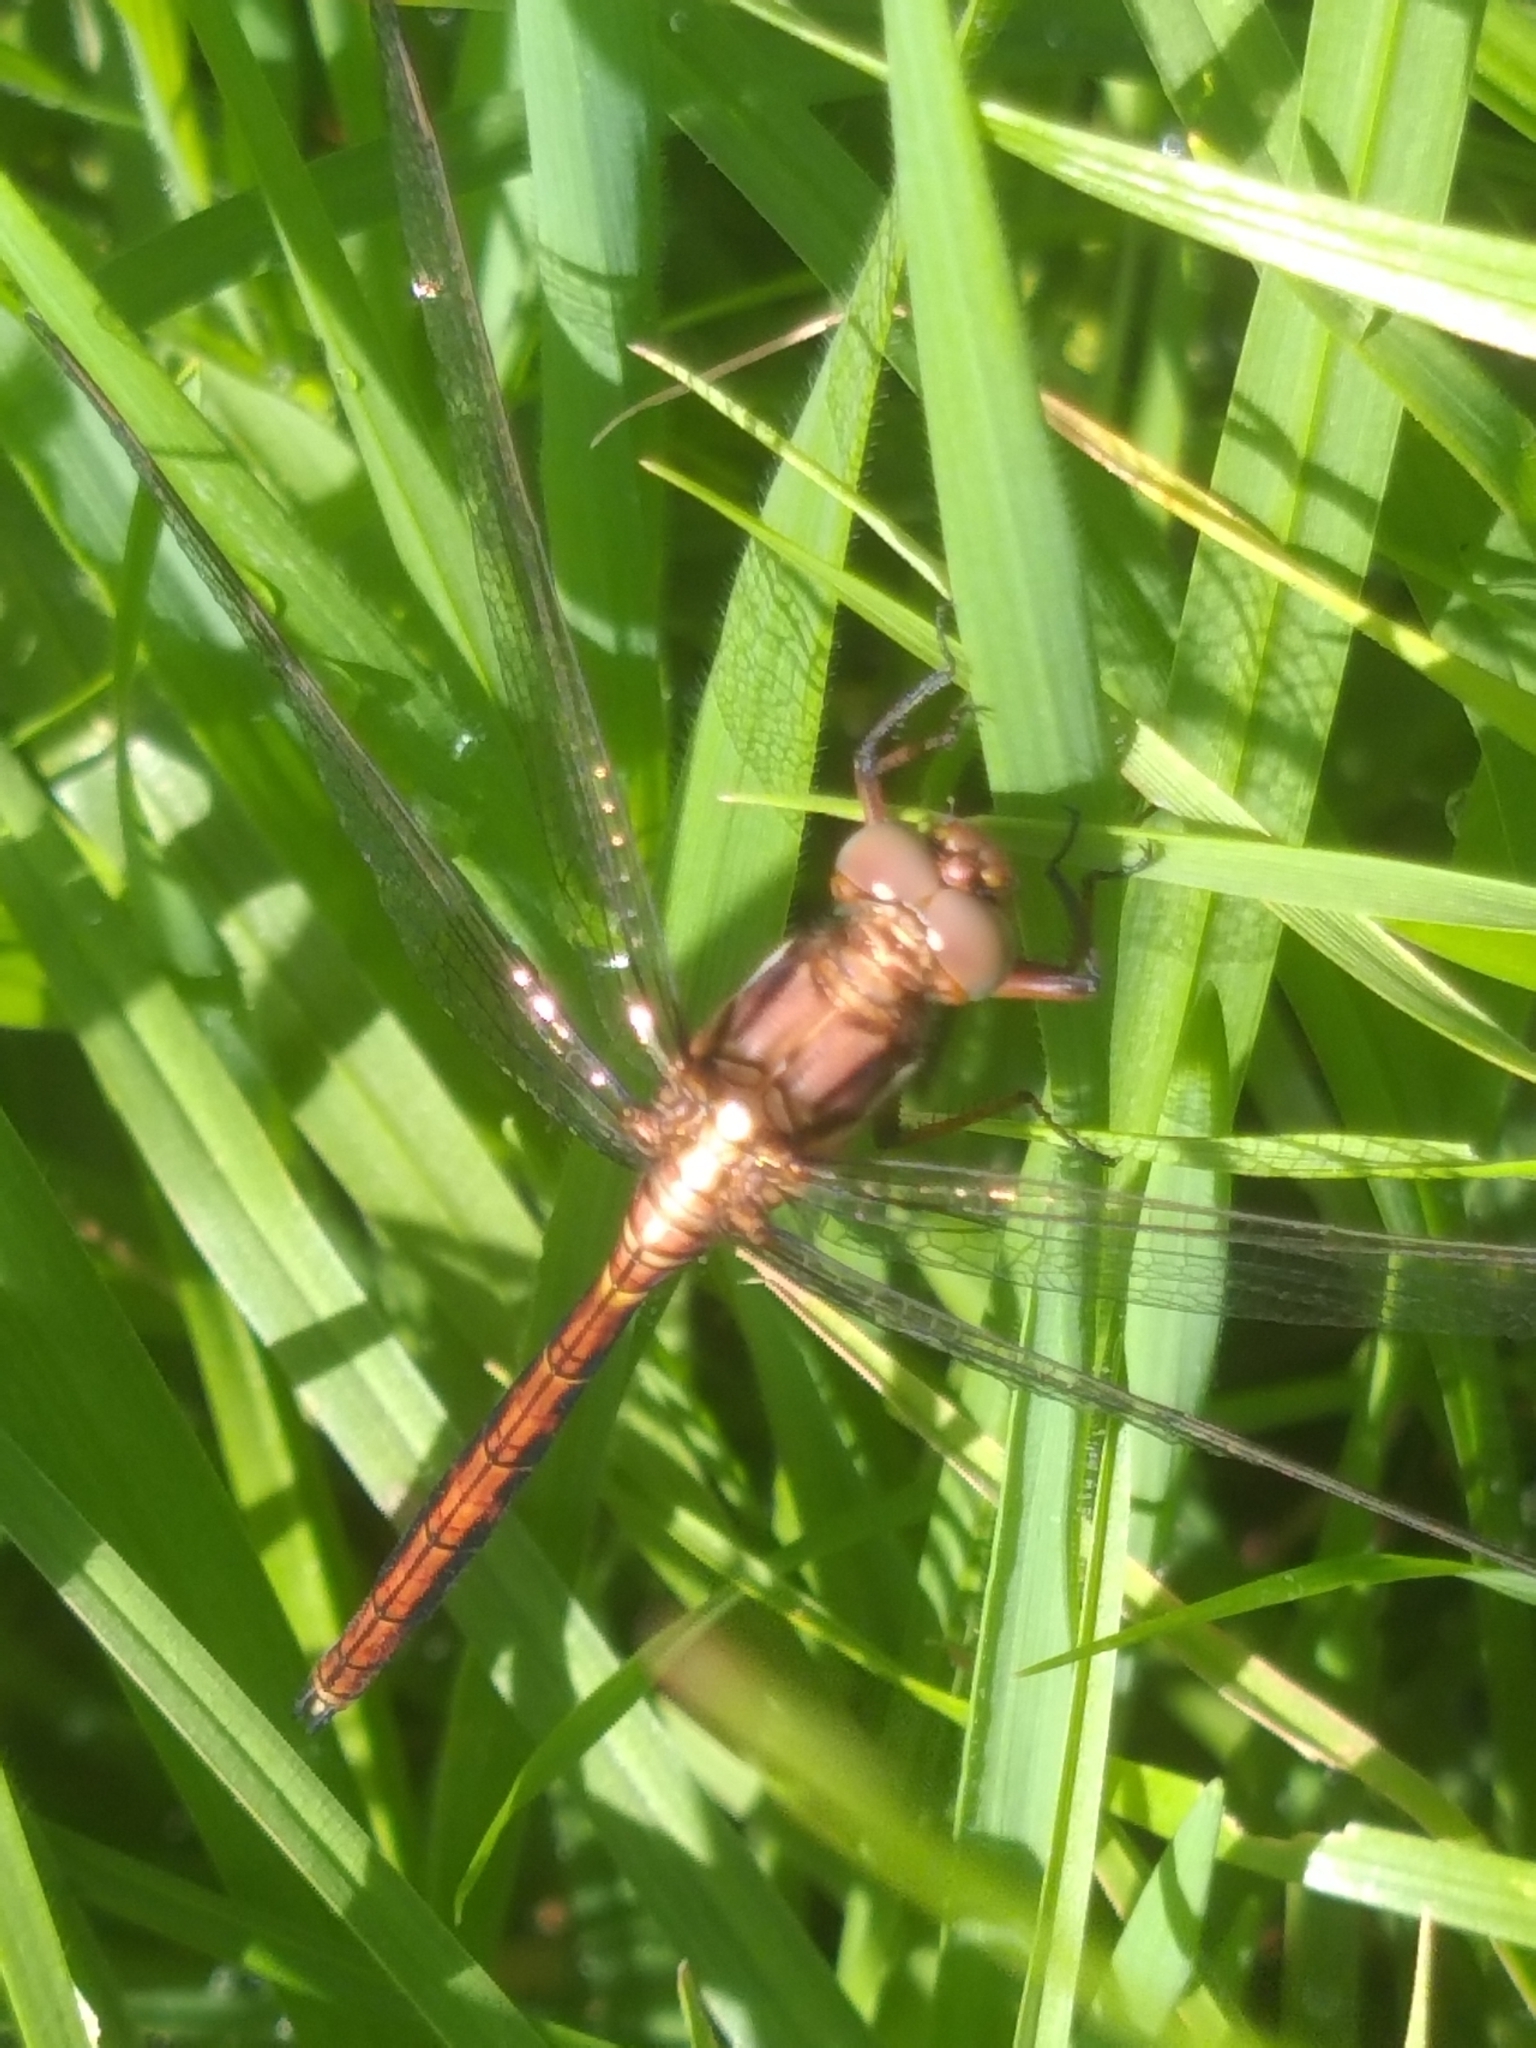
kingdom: Animalia
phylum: Arthropoda
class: Insecta
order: Odonata
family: Libellulidae
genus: Orthetrum
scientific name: Orthetrum julia
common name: Julia skimmer
